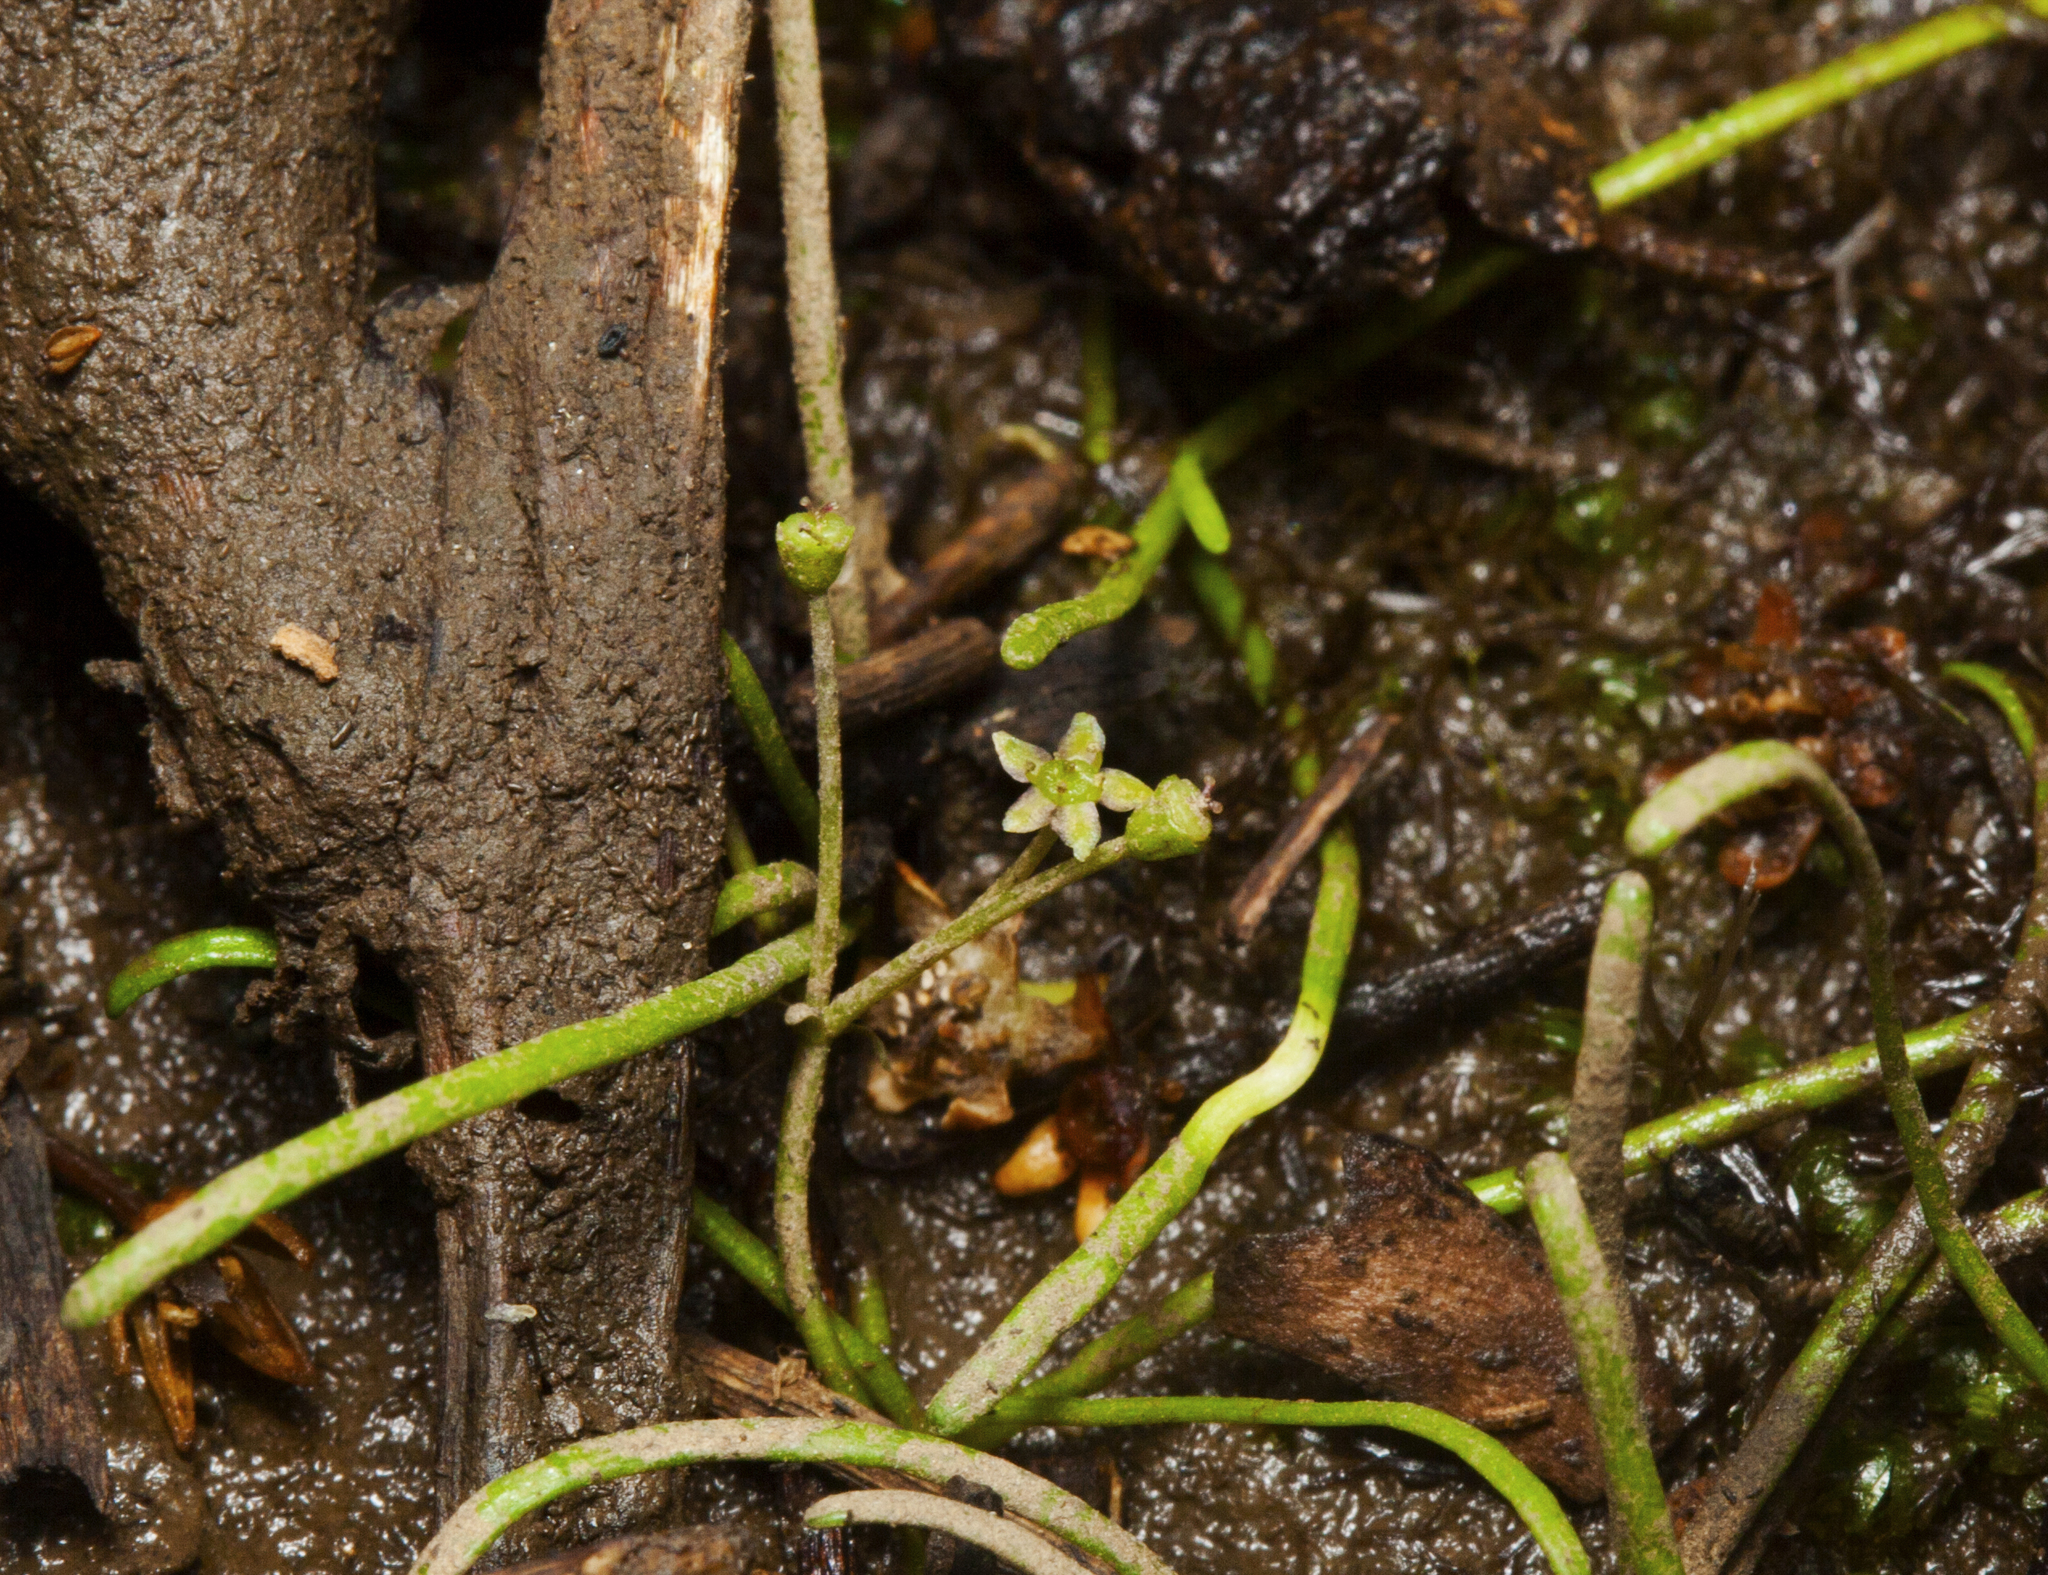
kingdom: Plantae
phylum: Tracheophyta
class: Magnoliopsida
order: Apiales
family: Apiaceae
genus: Lilaeopsis
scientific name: Lilaeopsis brisbanica
